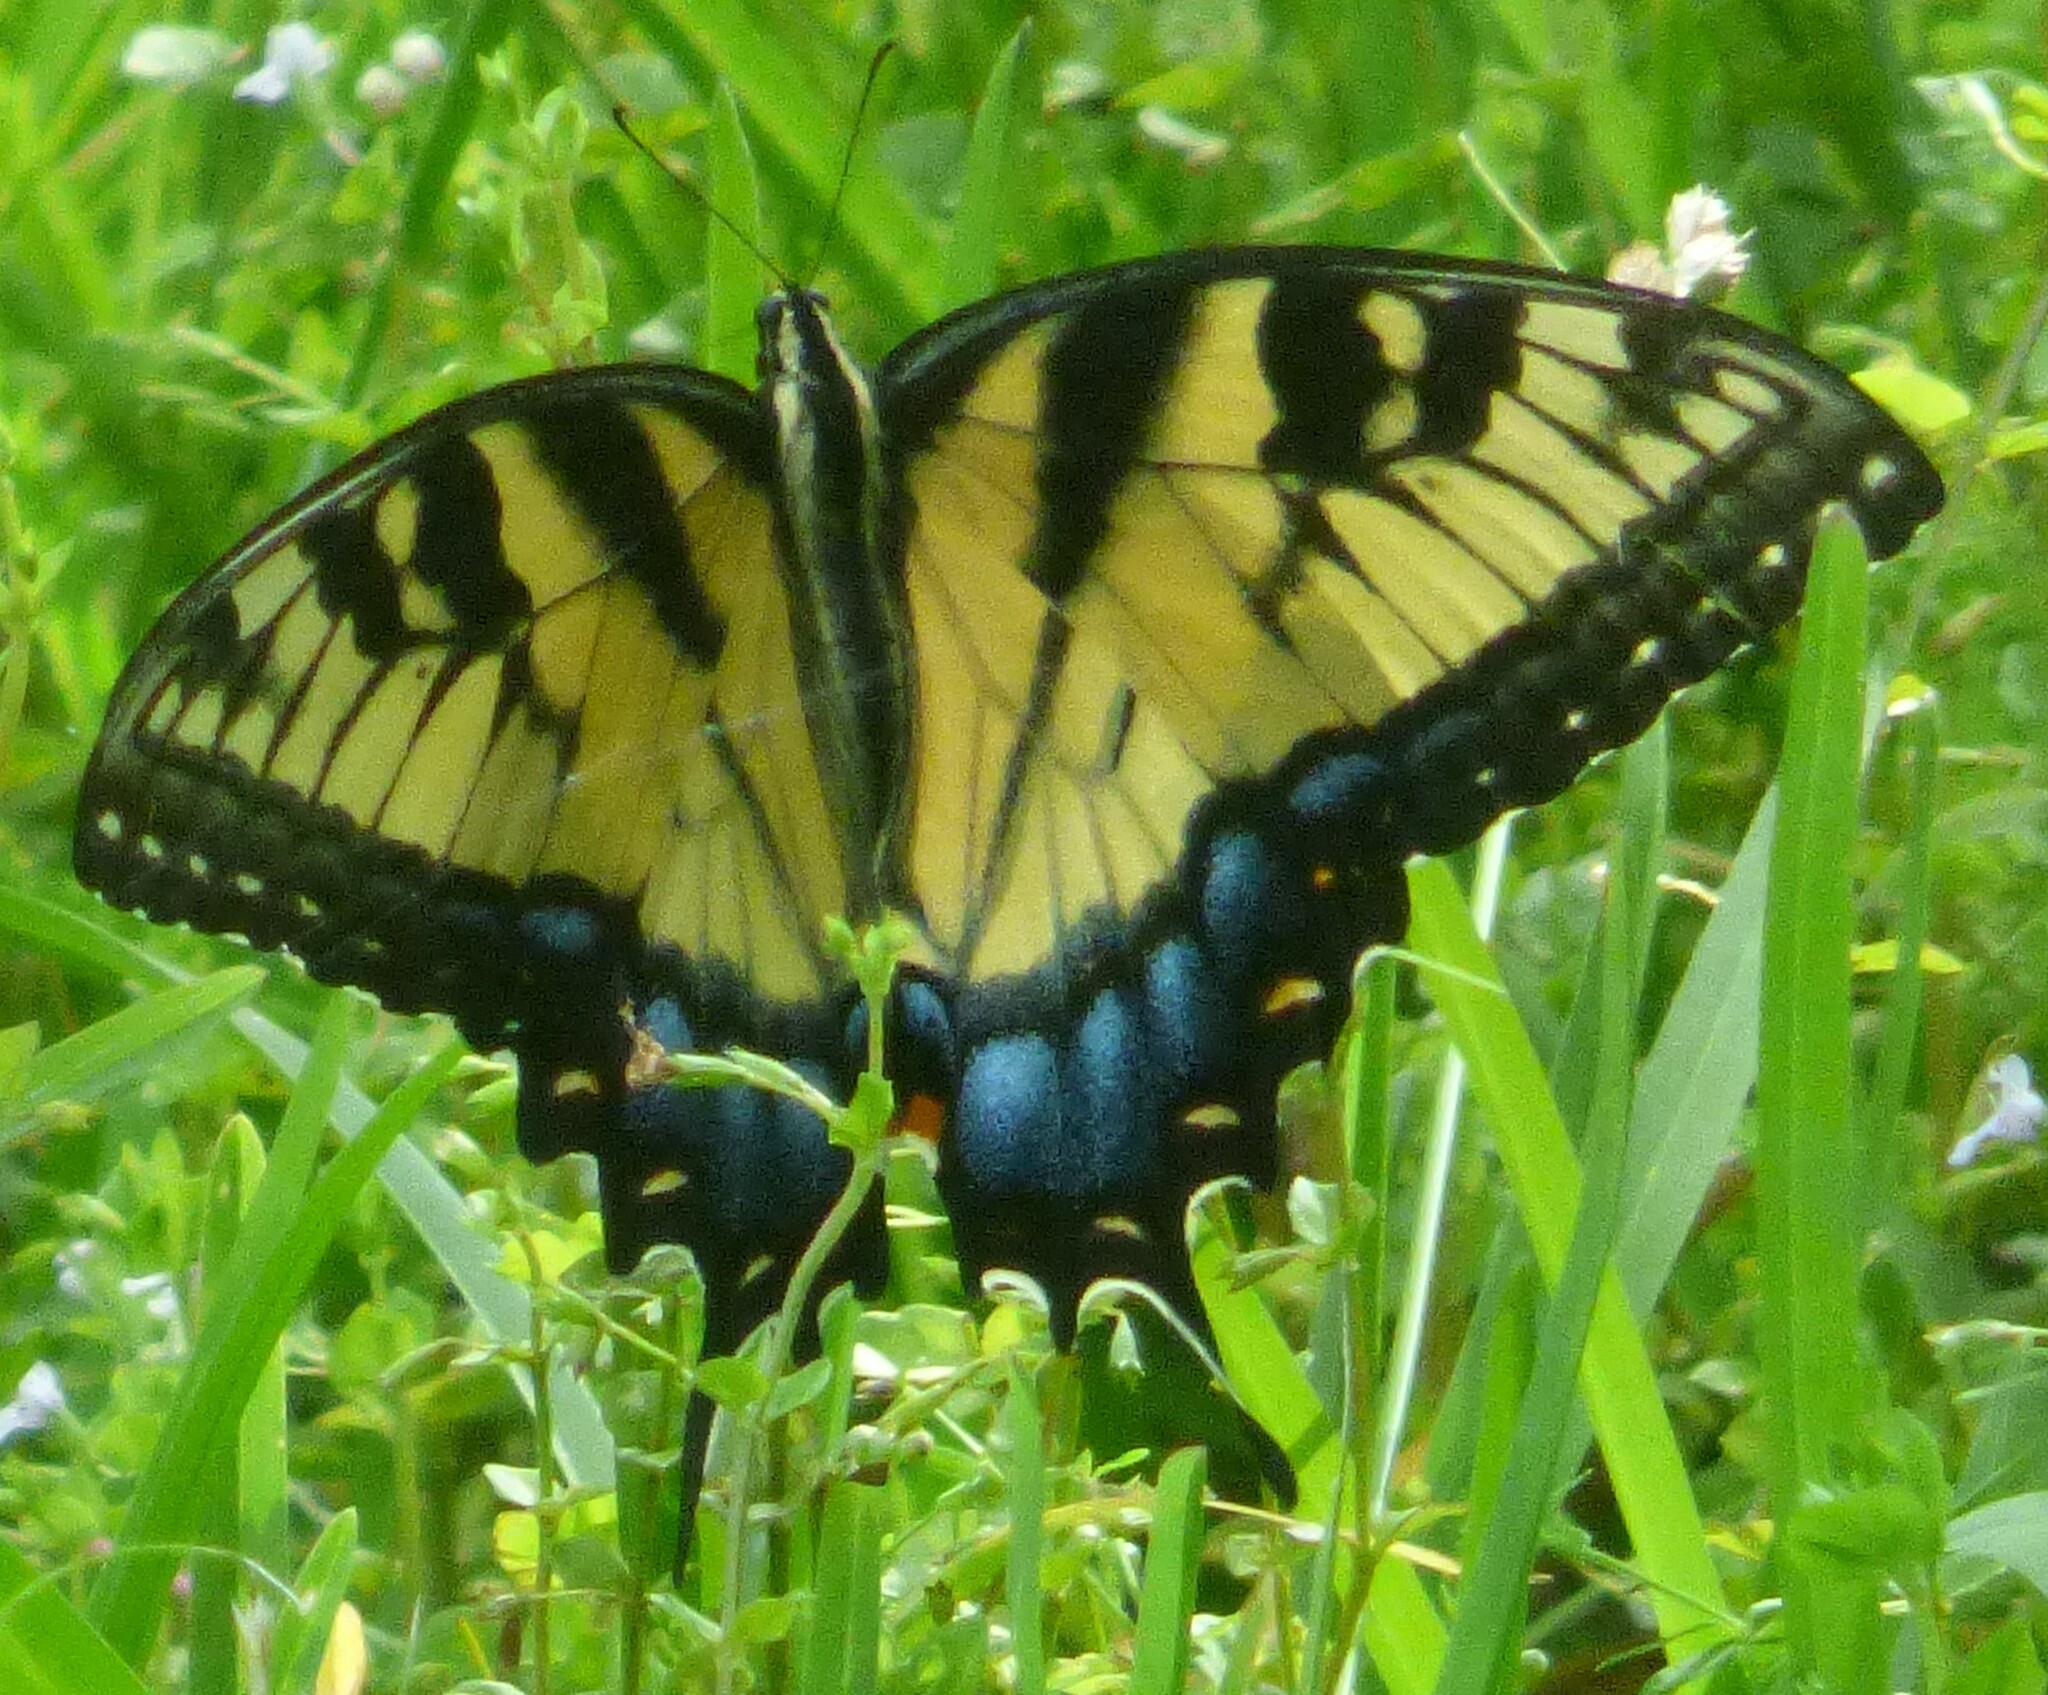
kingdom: Animalia
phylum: Arthropoda
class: Insecta
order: Lepidoptera
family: Papilionidae
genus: Papilio
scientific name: Papilio glaucus
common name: Tiger swallowtail
